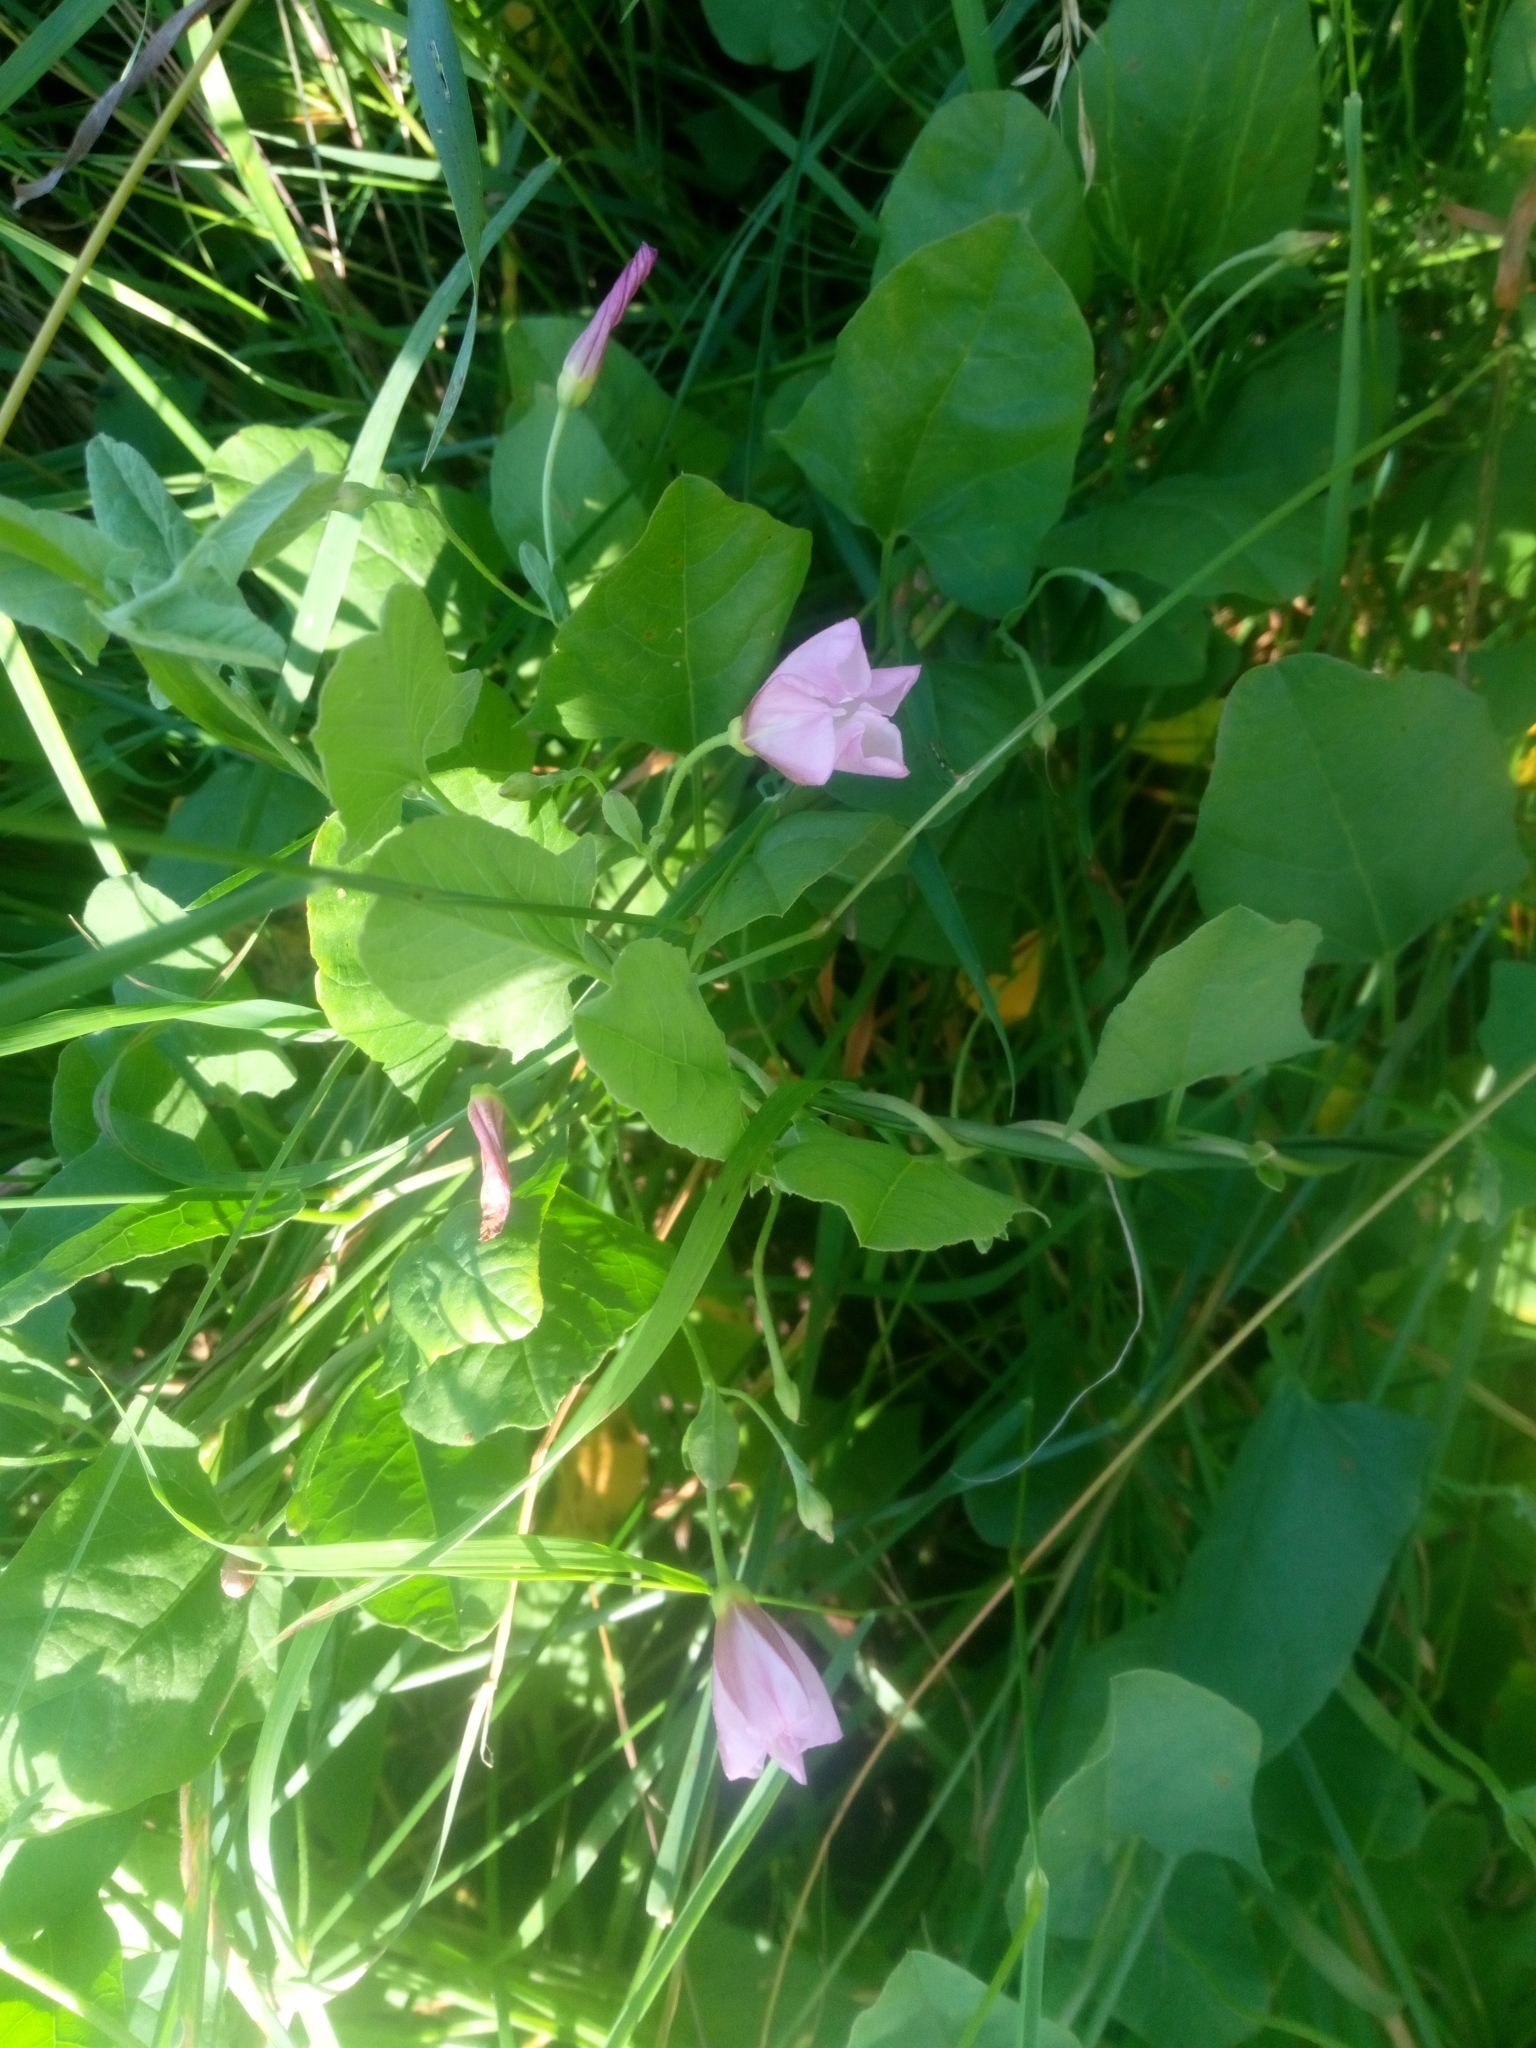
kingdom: Plantae
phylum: Tracheophyta
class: Magnoliopsida
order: Solanales
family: Convolvulaceae
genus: Convolvulus
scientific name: Convolvulus arvensis
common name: Field bindweed
